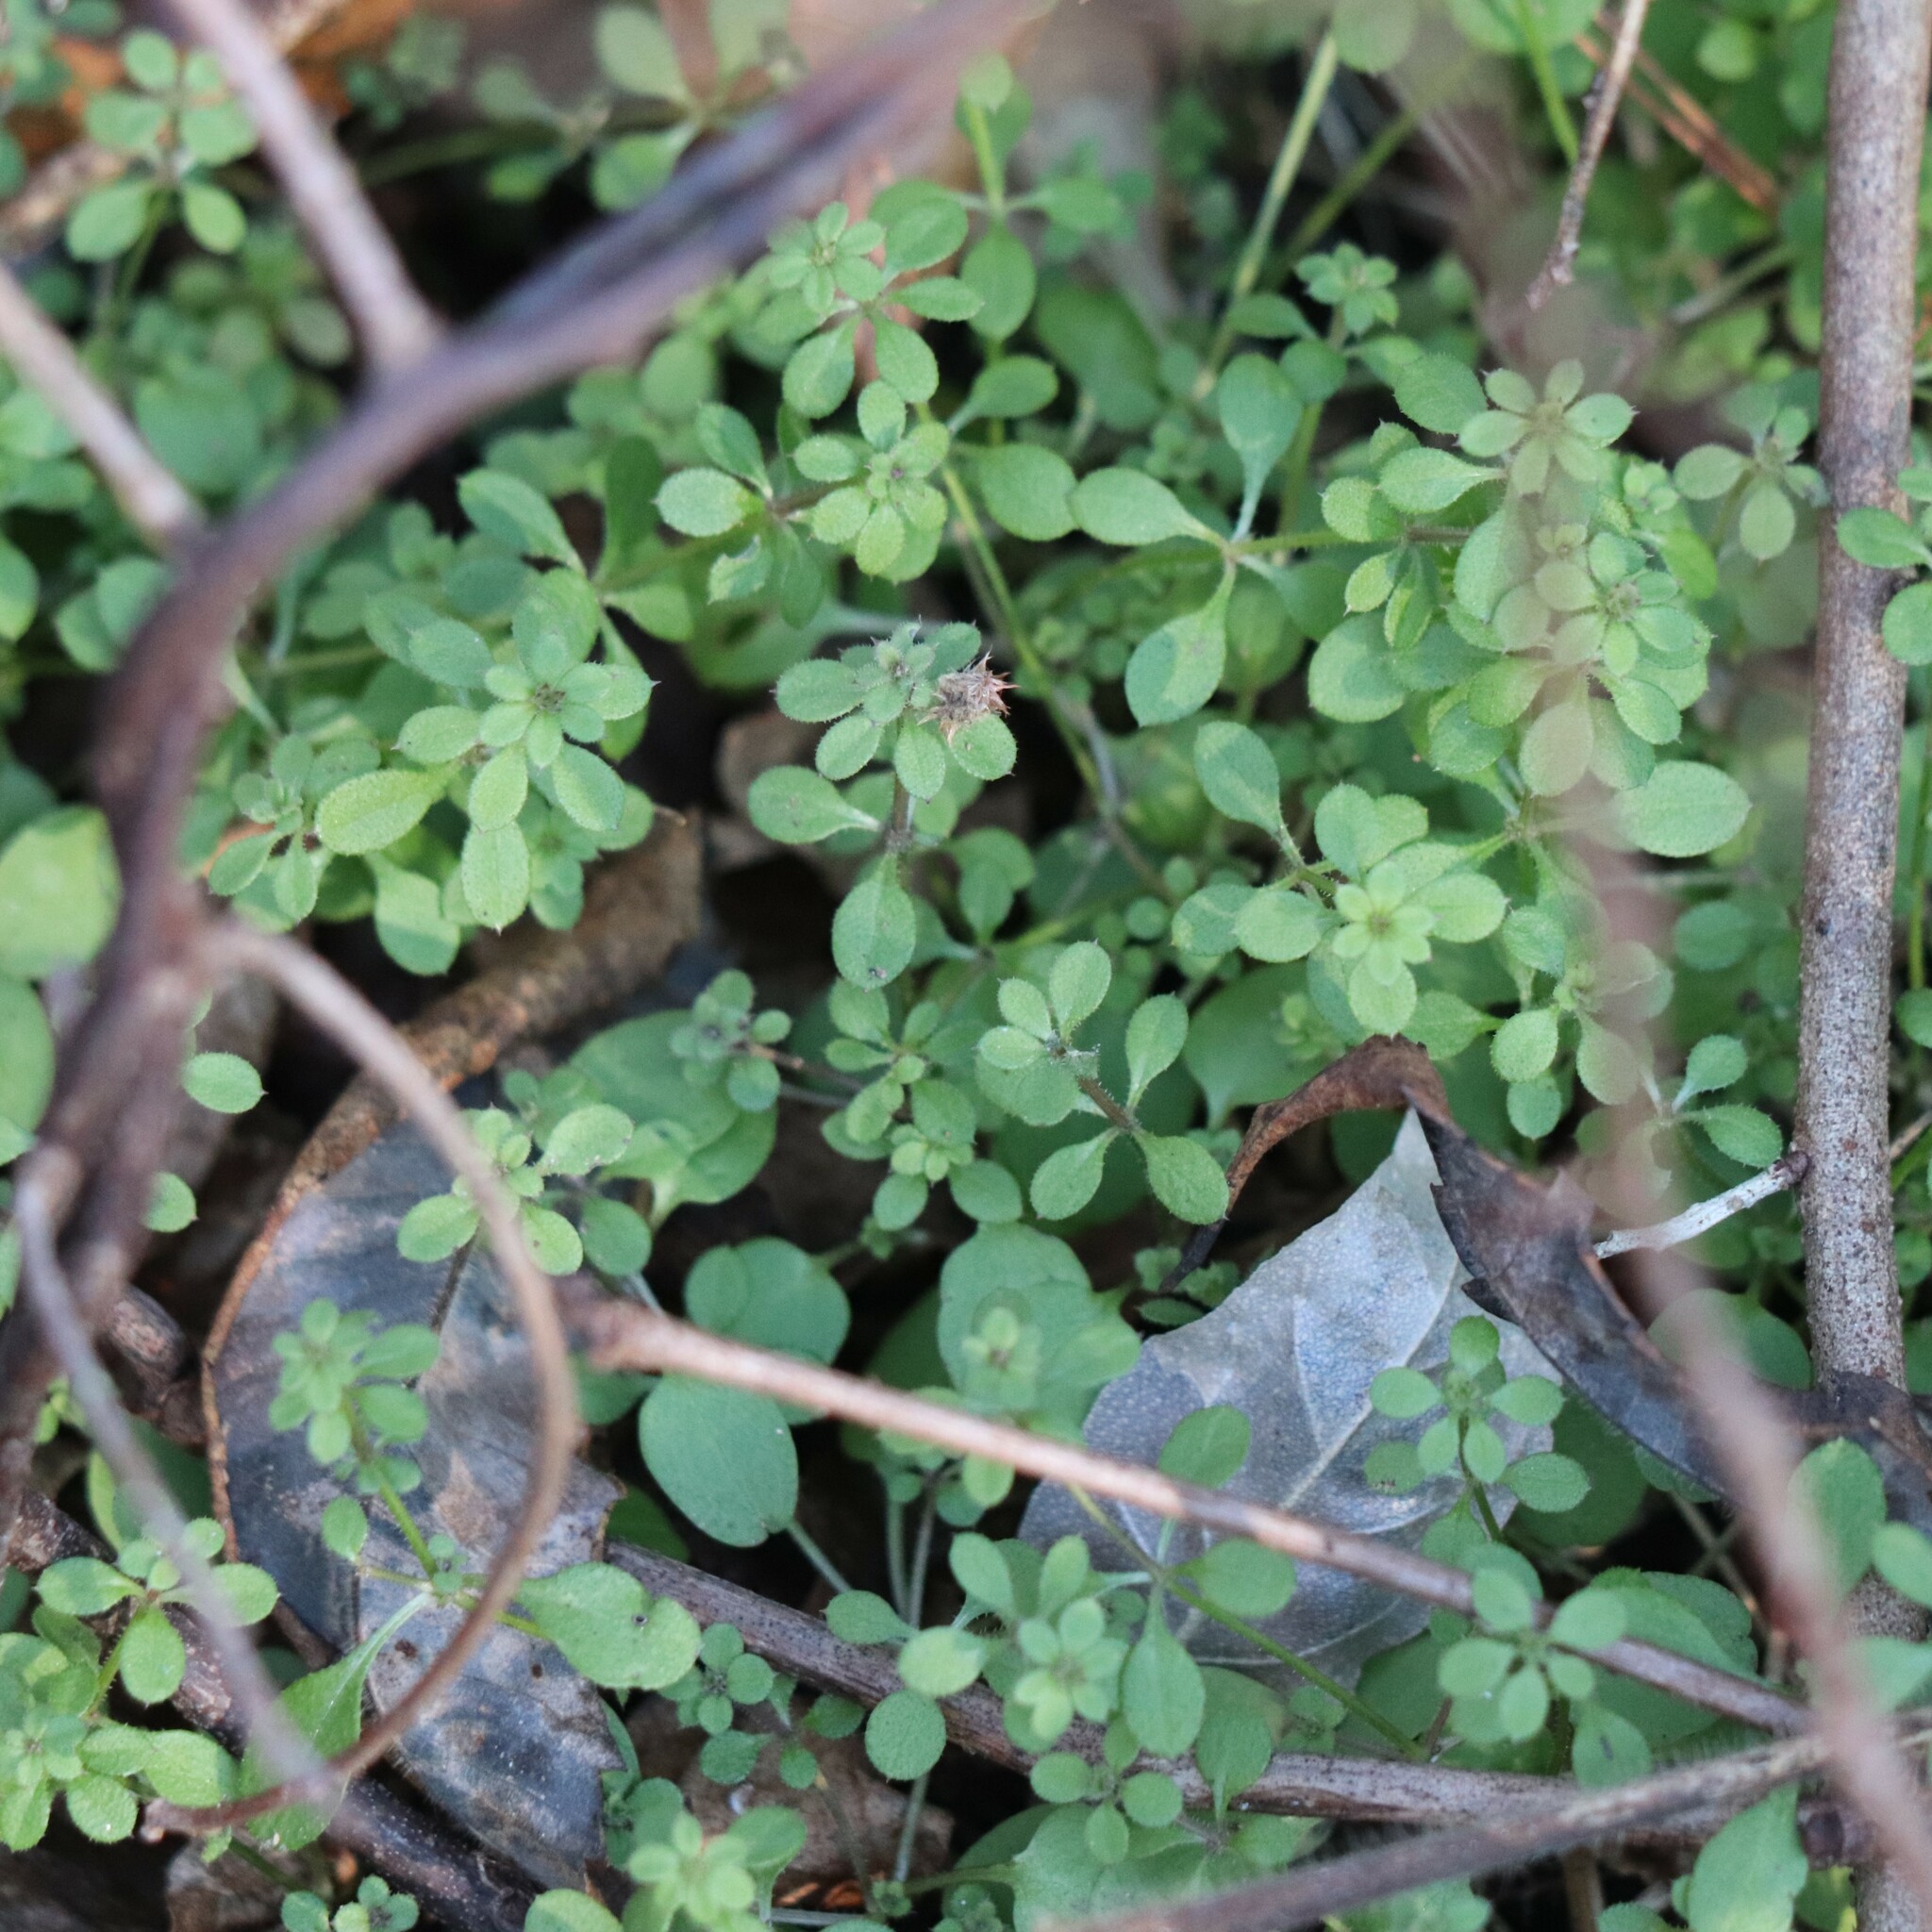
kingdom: Plantae
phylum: Tracheophyta
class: Magnoliopsida
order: Gentianales
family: Rubiaceae
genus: Galium
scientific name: Galium aparine
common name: Cleavers
